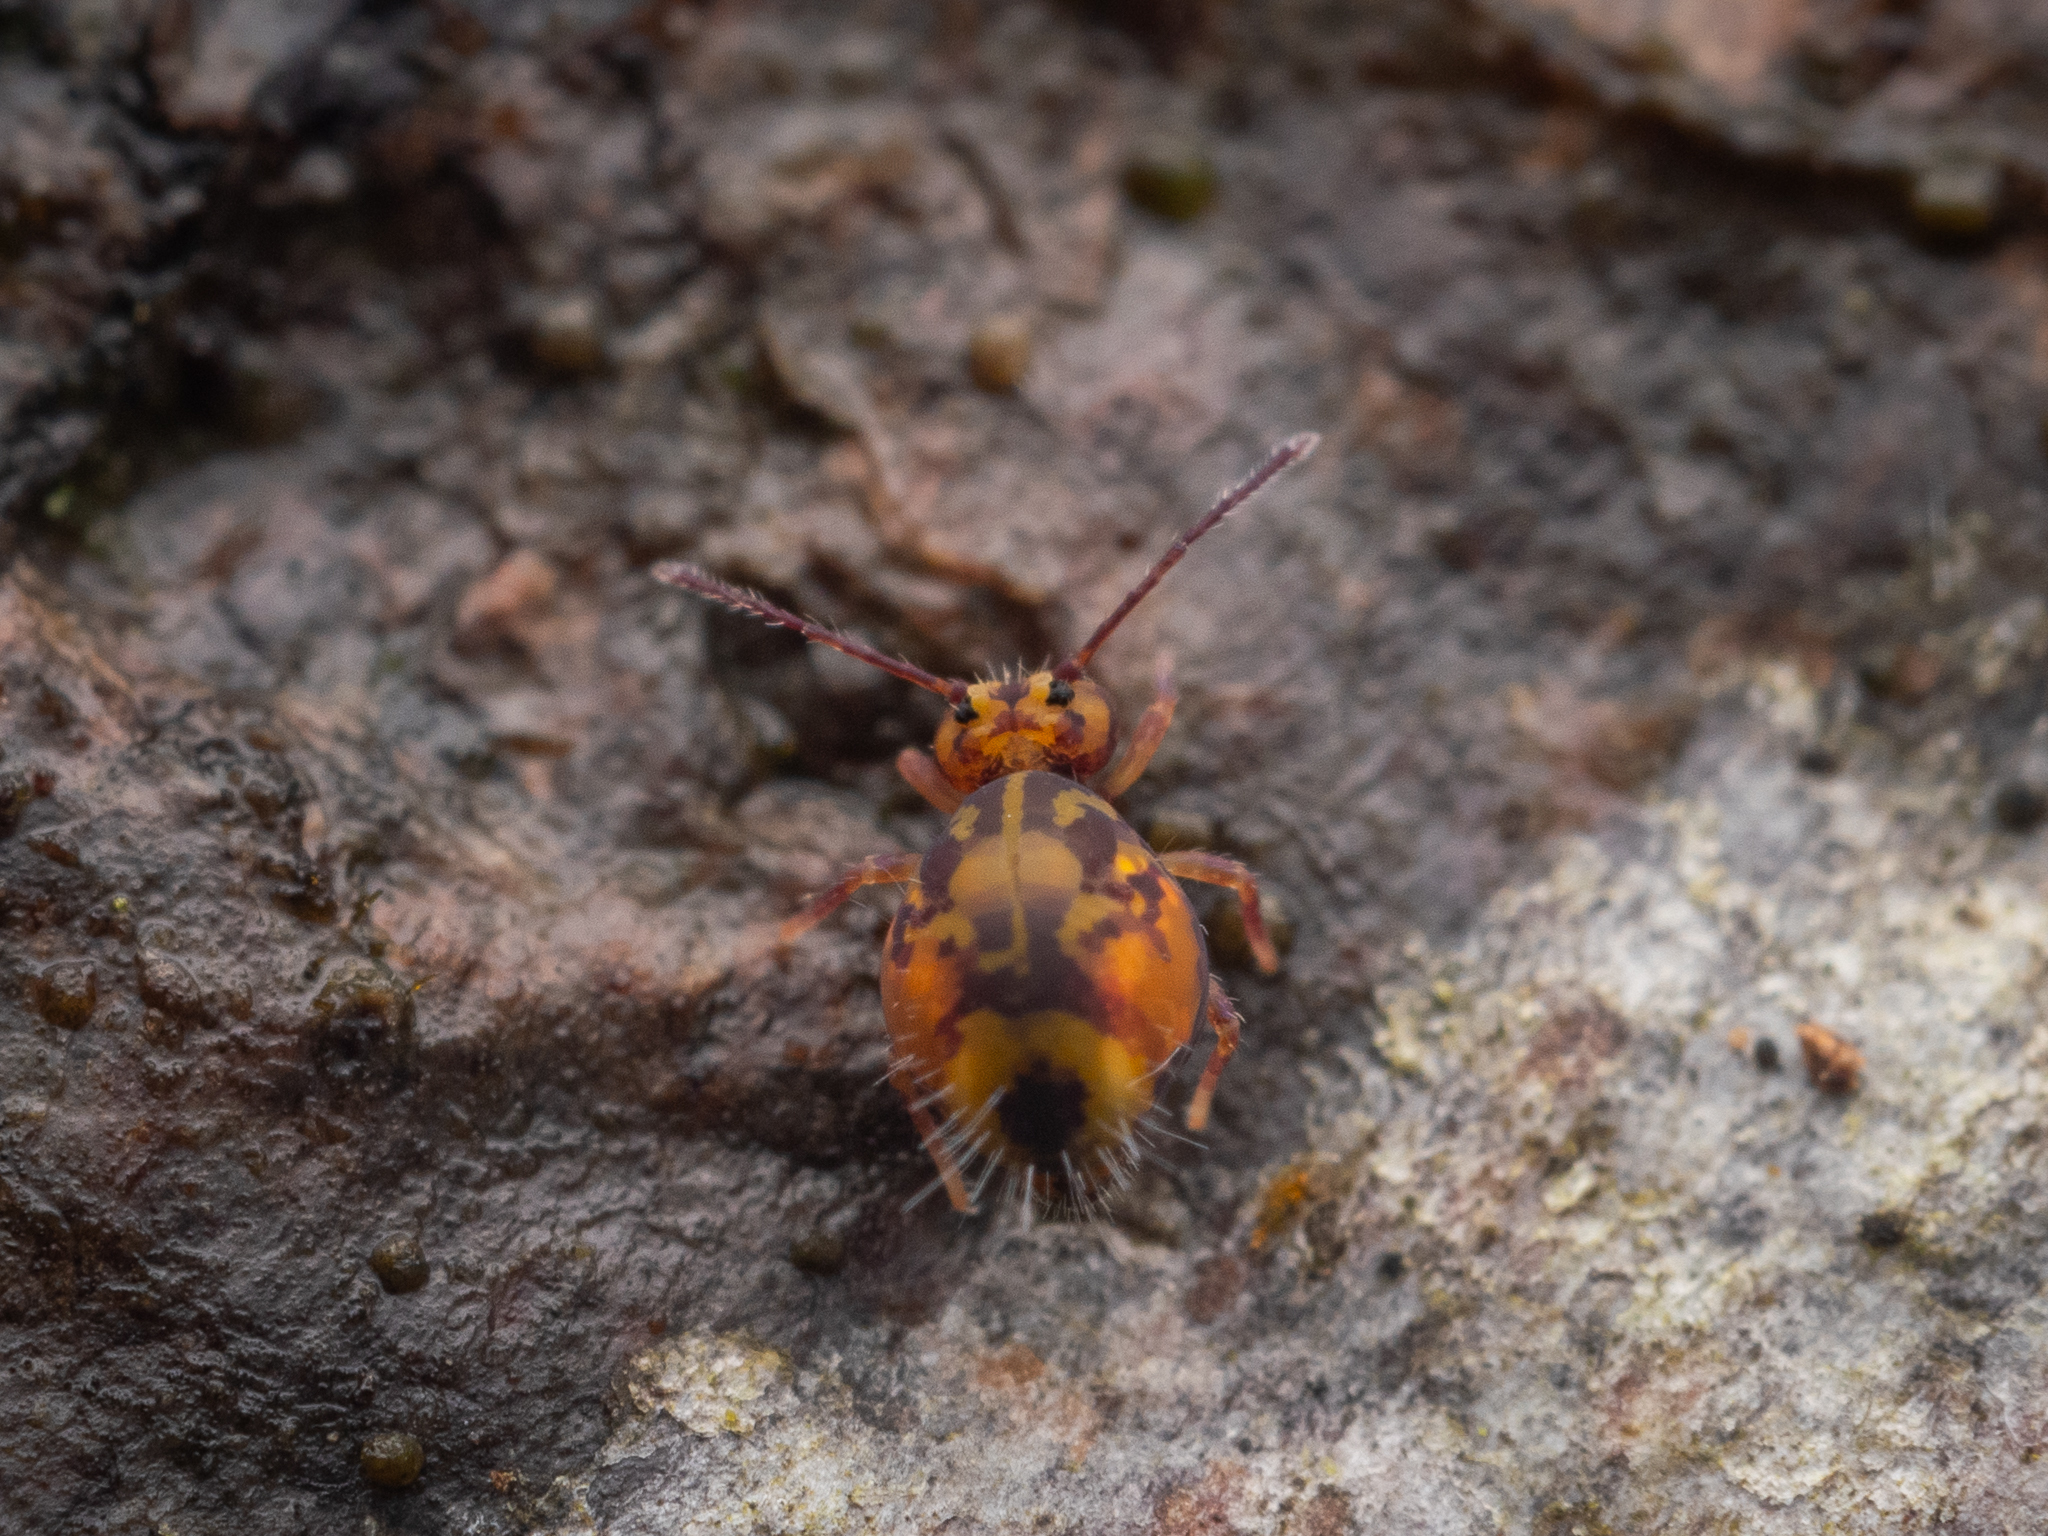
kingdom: Animalia
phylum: Arthropoda
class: Collembola
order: Symphypleona
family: Dicyrtomidae
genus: Dicyrtomina
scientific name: Dicyrtomina ornata
